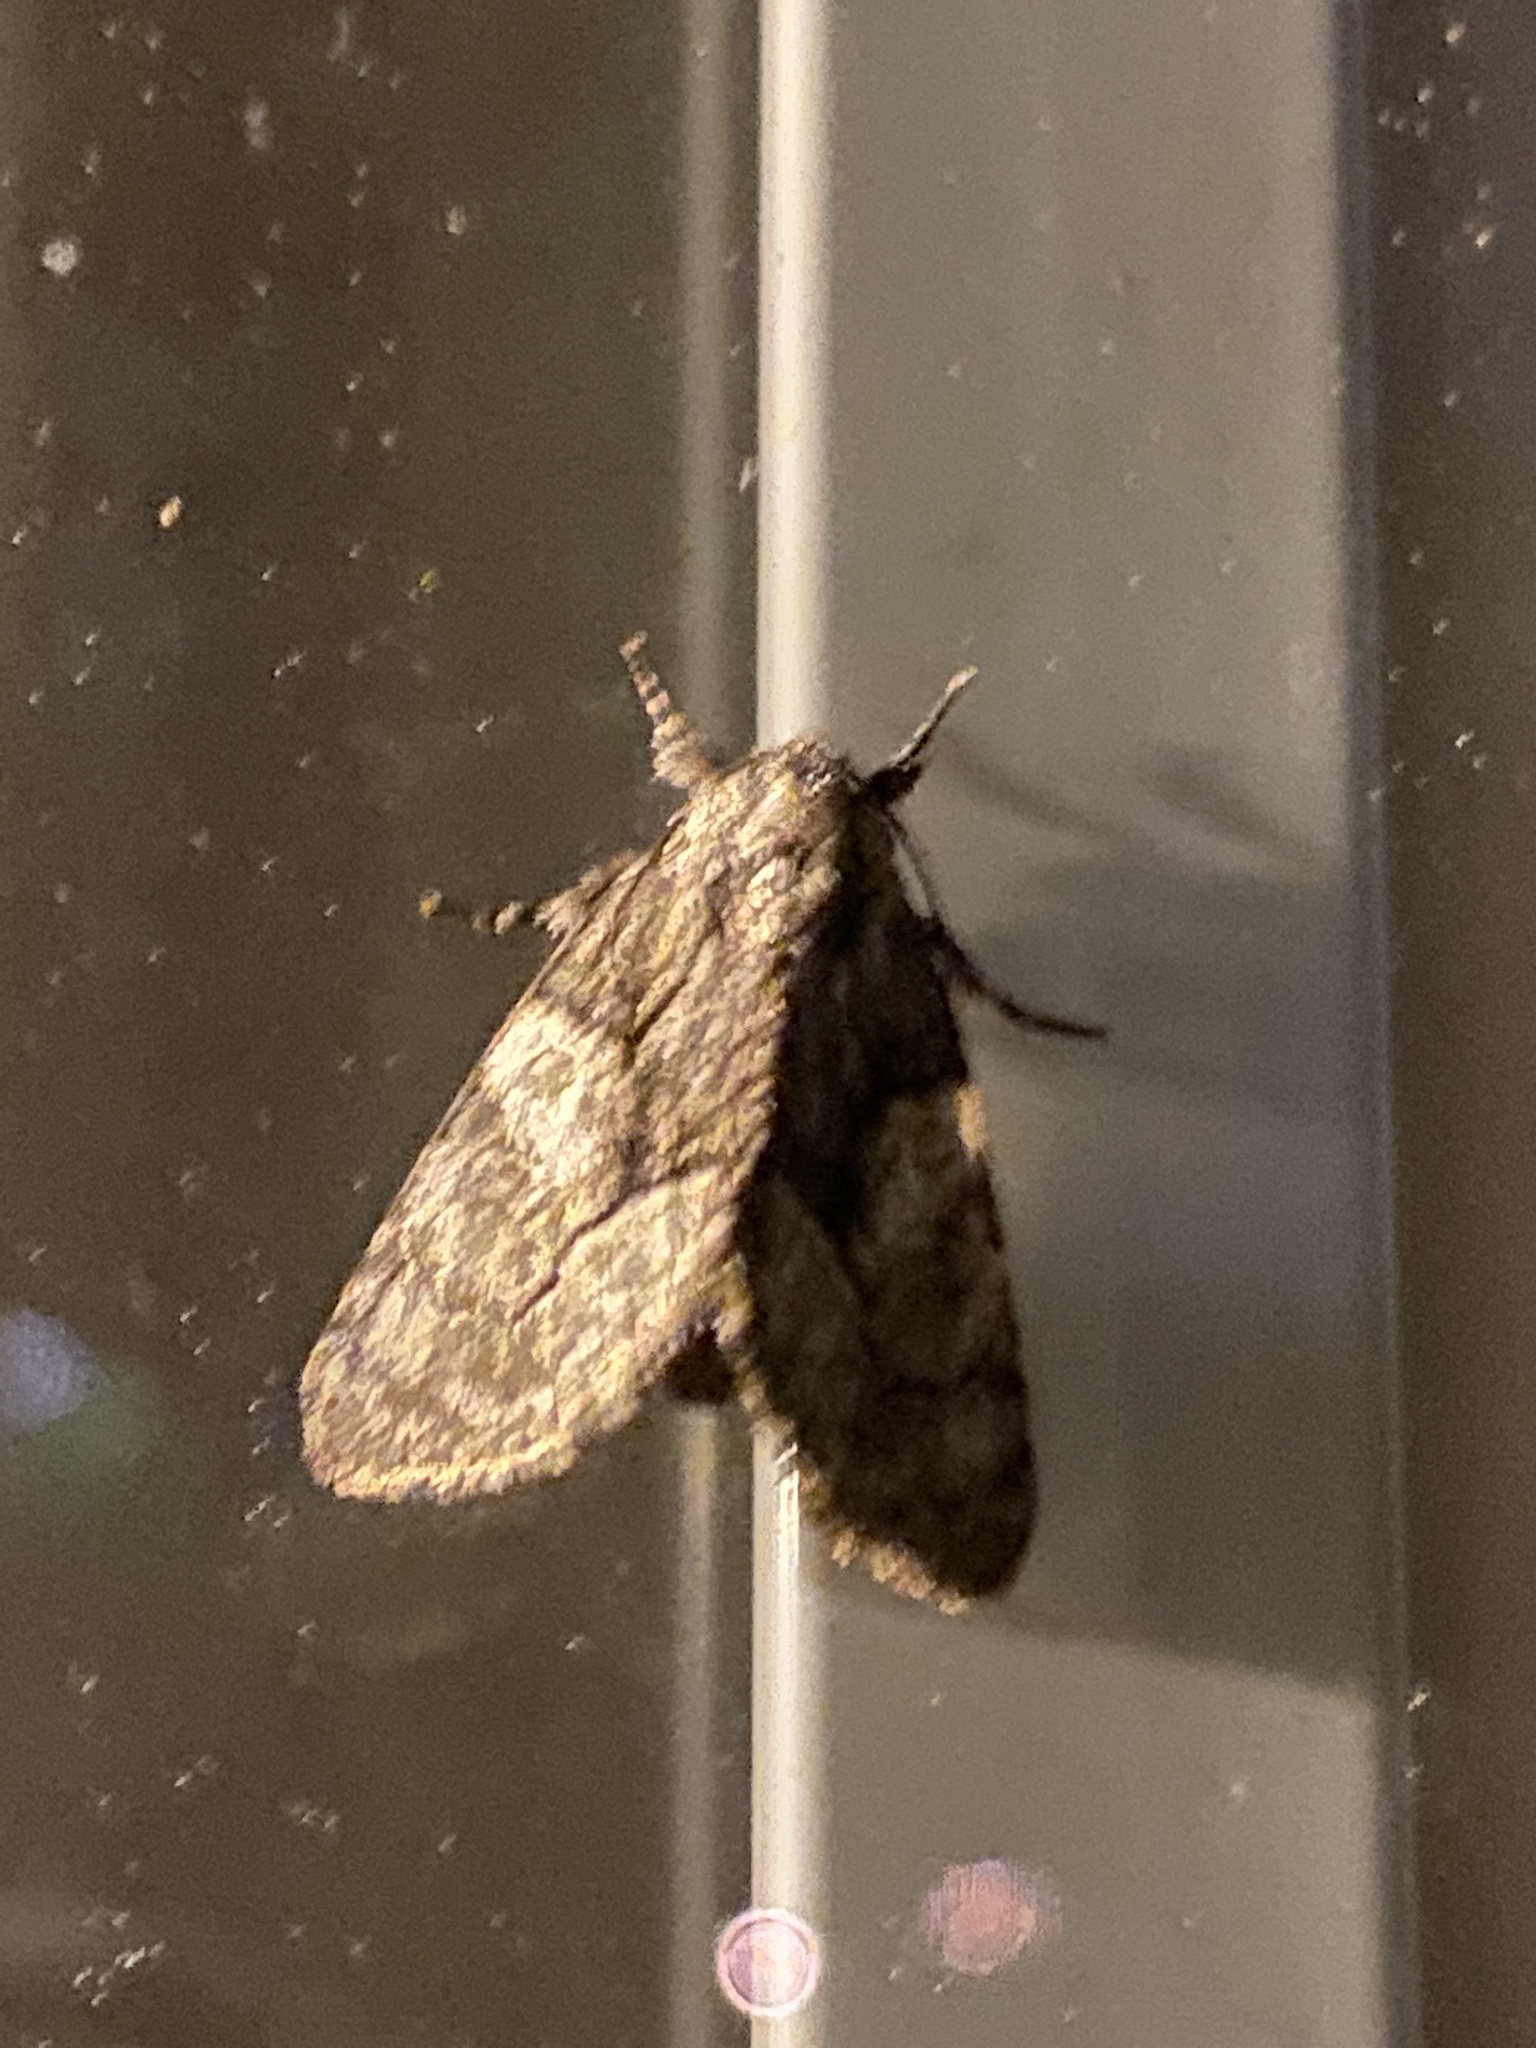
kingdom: Animalia
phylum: Arthropoda
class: Insecta
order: Lepidoptera
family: Noctuidae
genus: Raphia
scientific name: Raphia frater
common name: Brother
